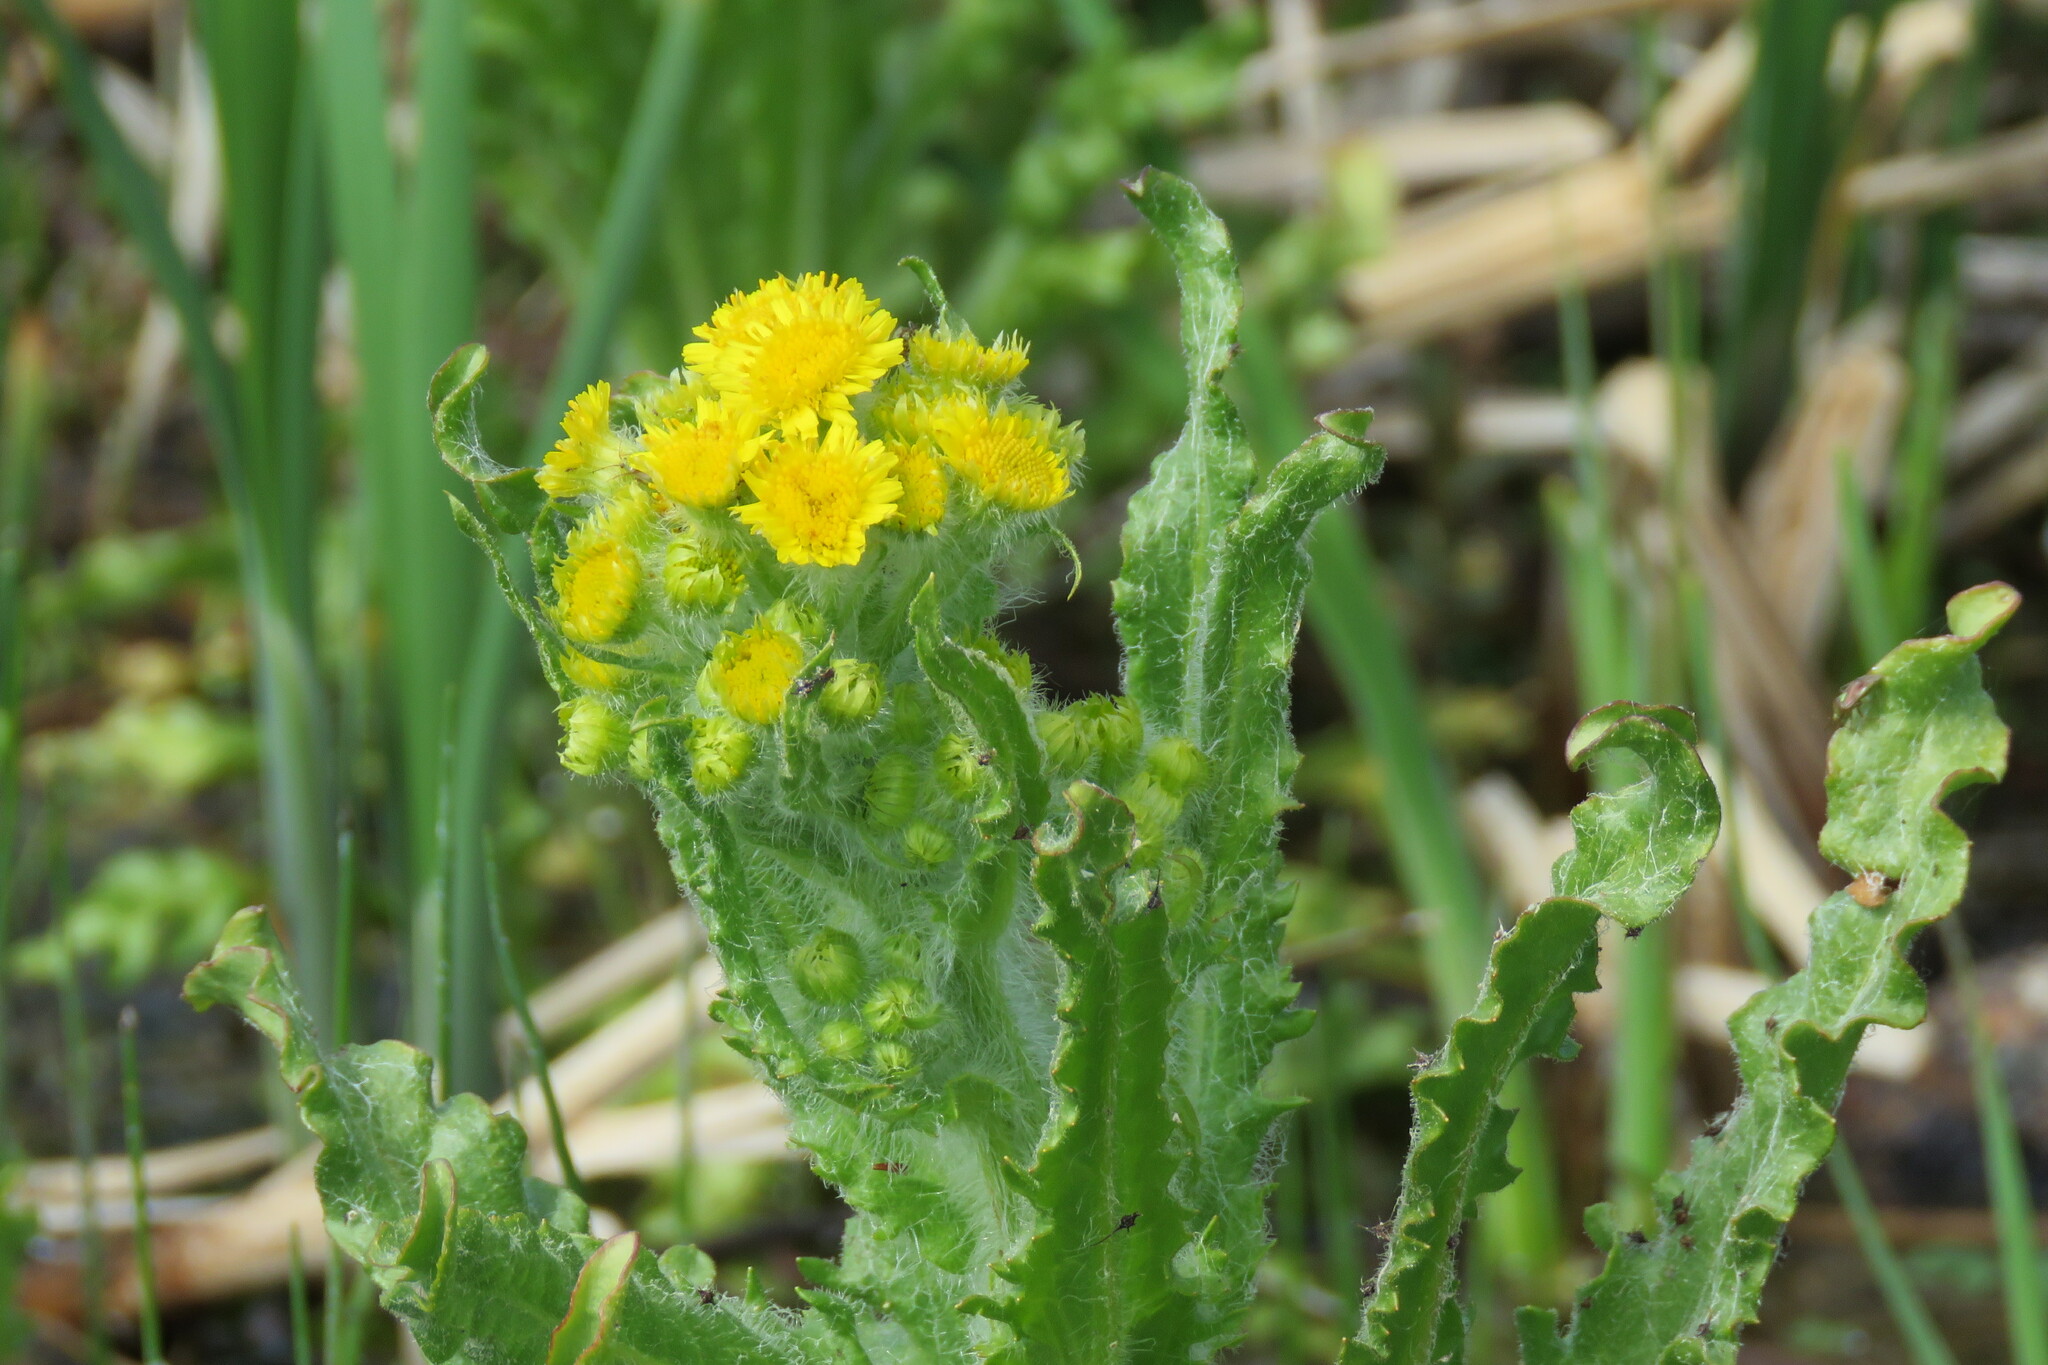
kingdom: Plantae
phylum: Tracheophyta
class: Magnoliopsida
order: Asterales
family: Asteraceae
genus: Tephroseris
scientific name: Tephroseris palustris
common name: Marsh fleawort
